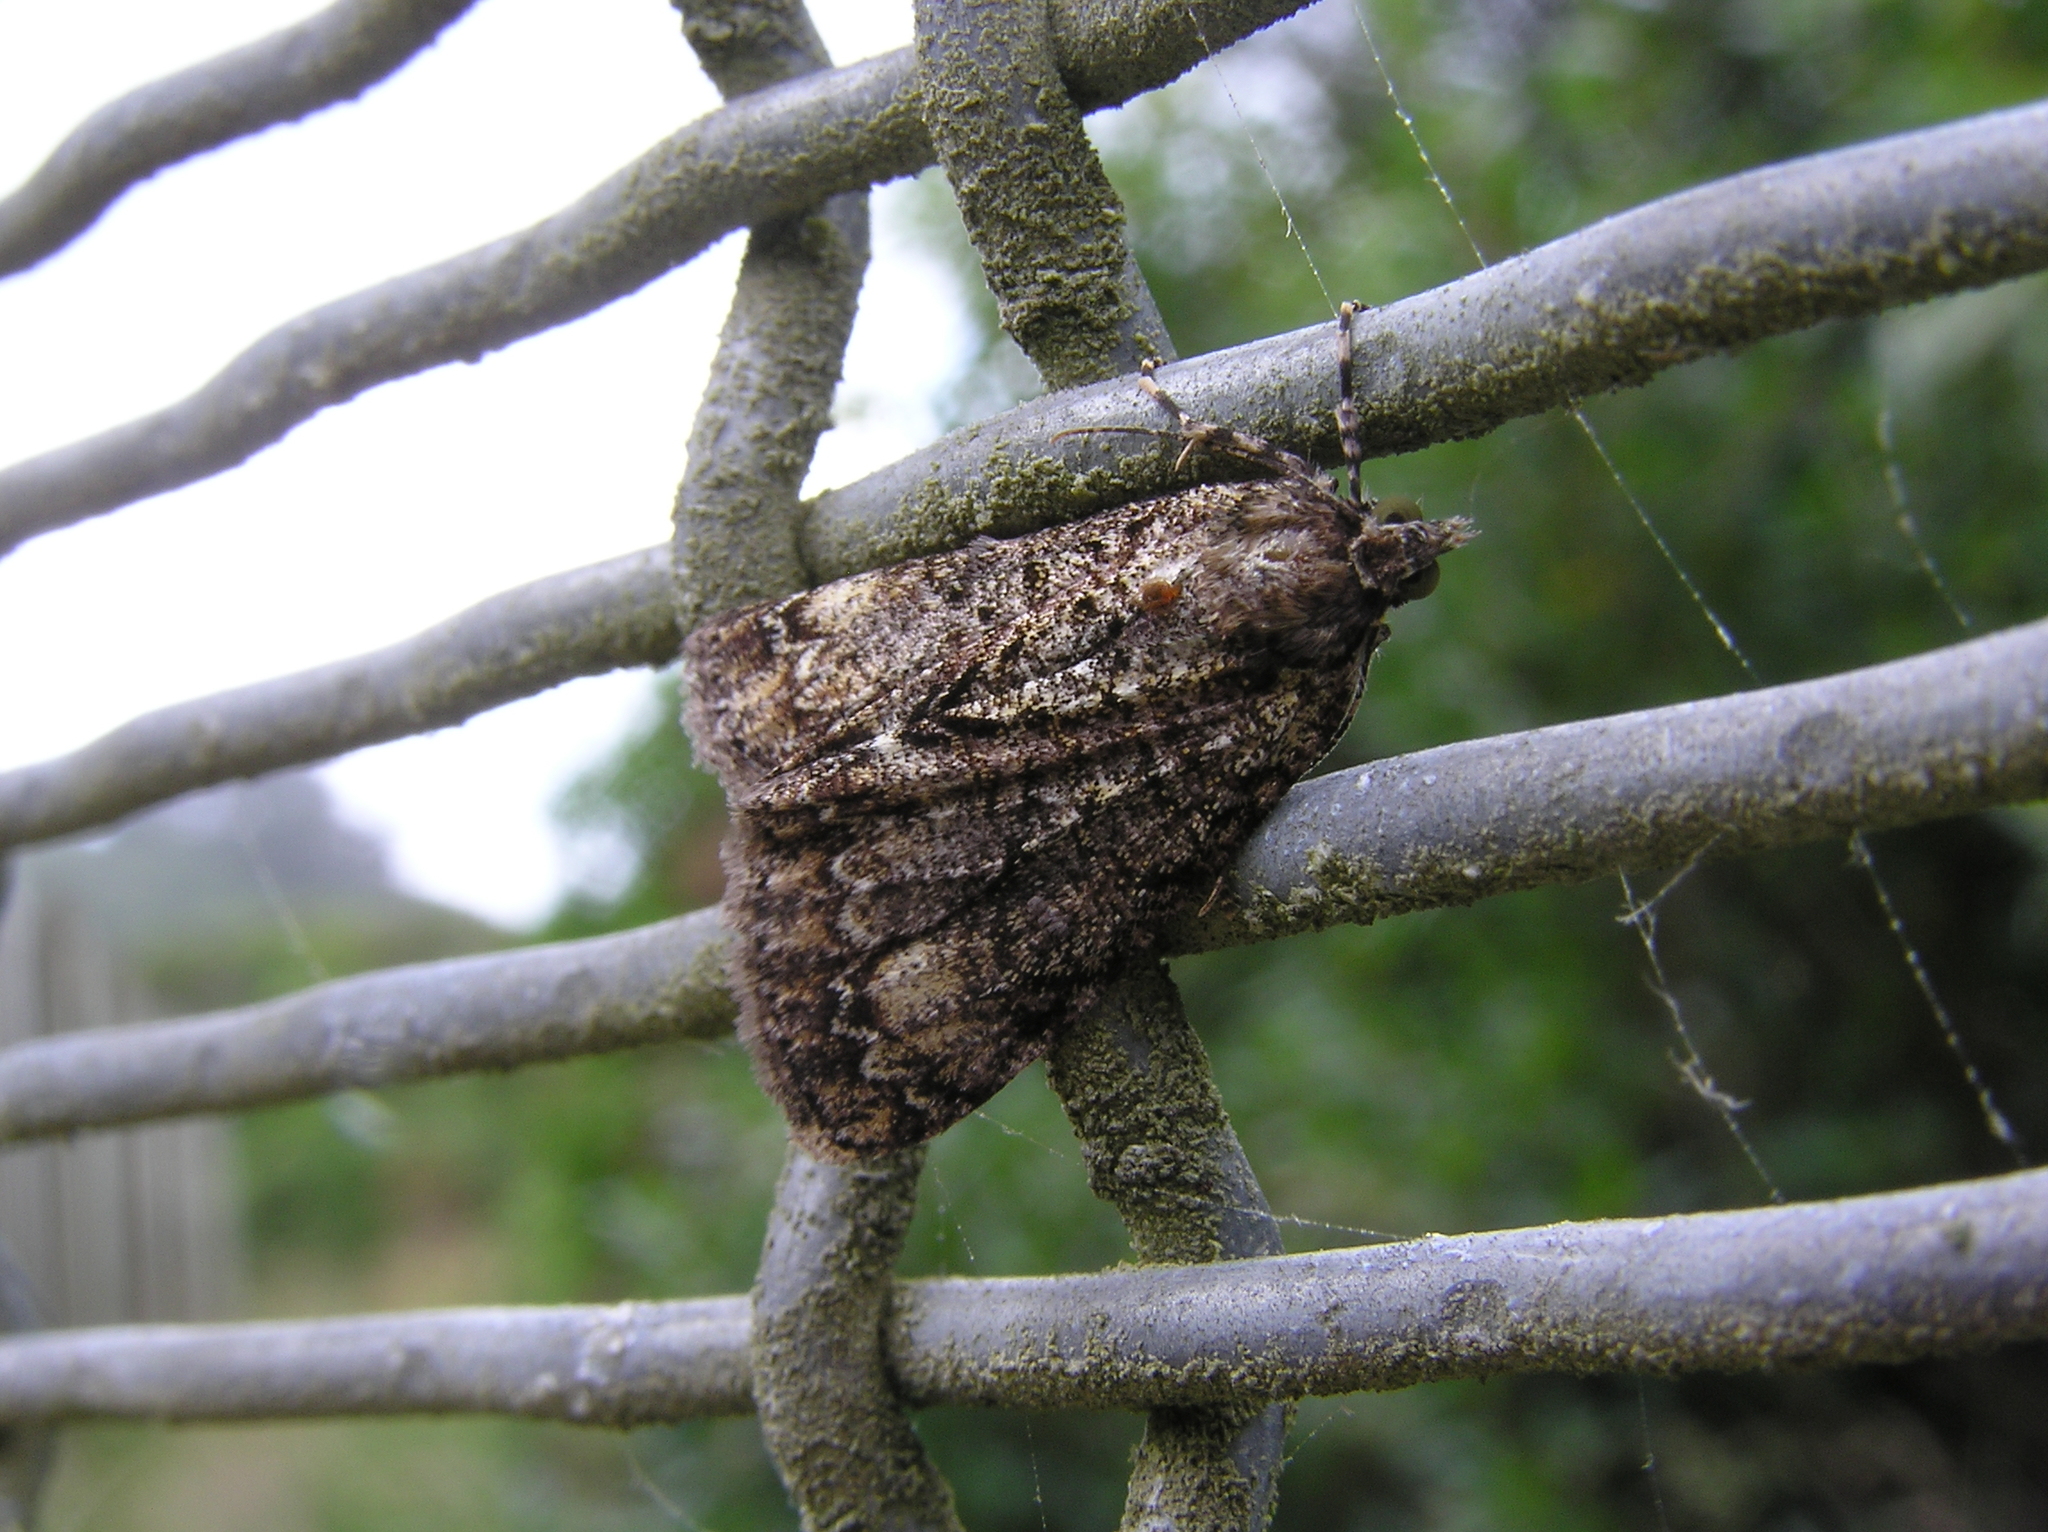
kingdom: Animalia
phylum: Arthropoda
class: Insecta
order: Lepidoptera
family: Geometridae
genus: Pseudocoremia
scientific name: Pseudocoremia suavis
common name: Common forest looper
